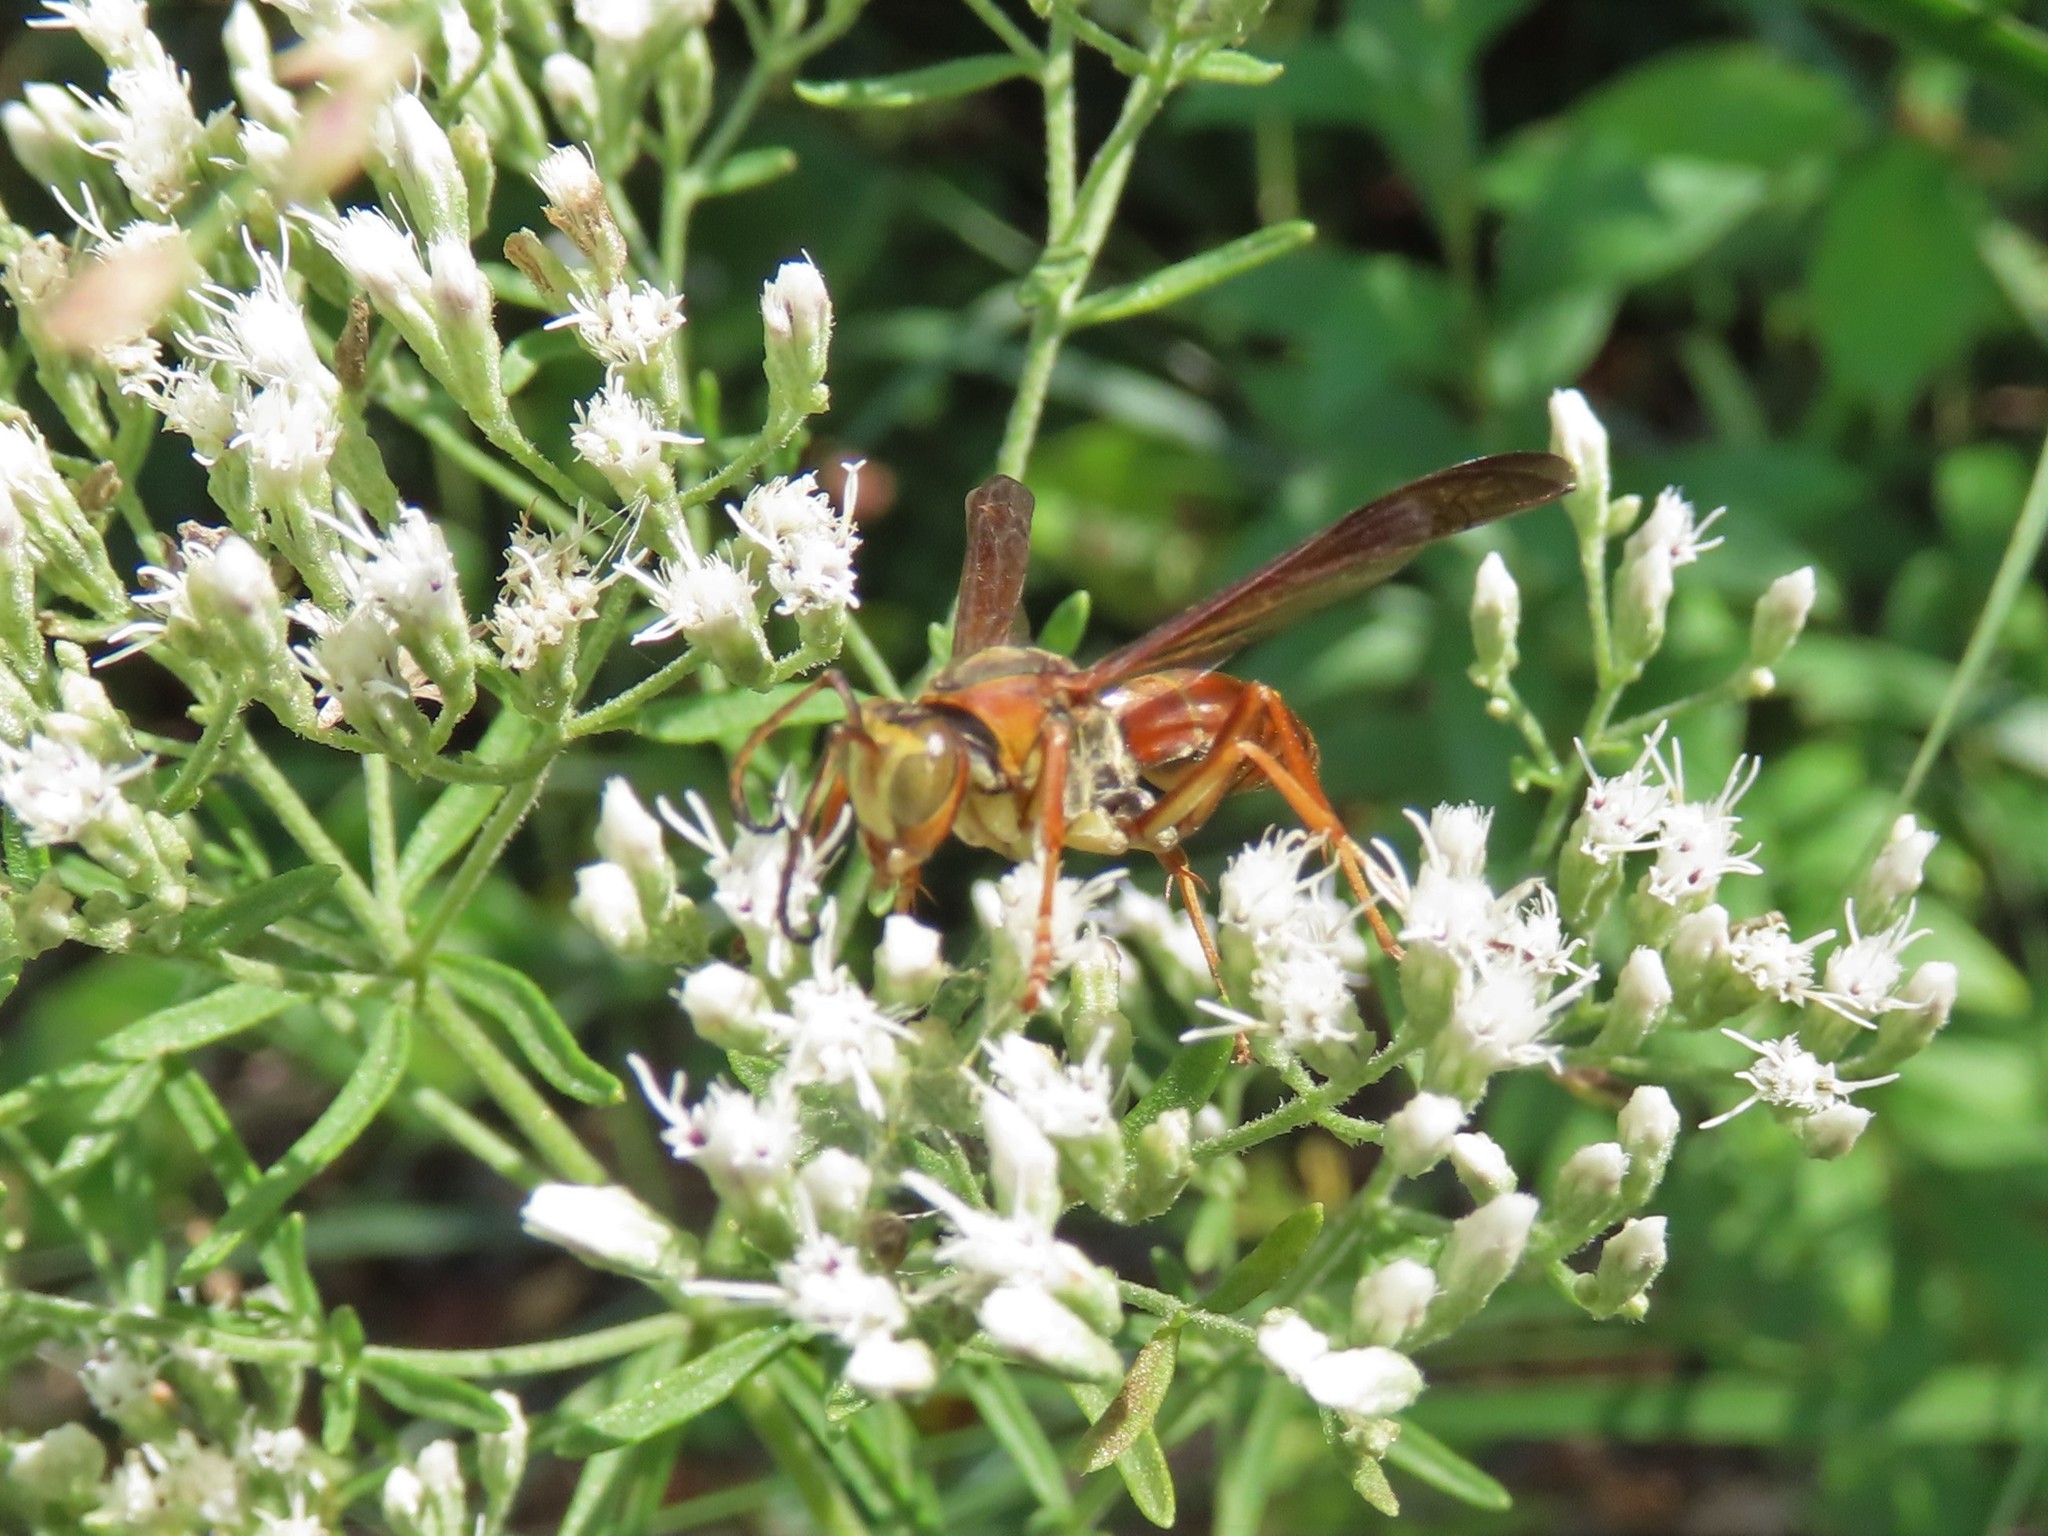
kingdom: Animalia
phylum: Arthropoda
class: Insecta
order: Hymenoptera
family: Eumenidae
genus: Polistes
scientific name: Polistes fuscatus
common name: Dark paper wasp
